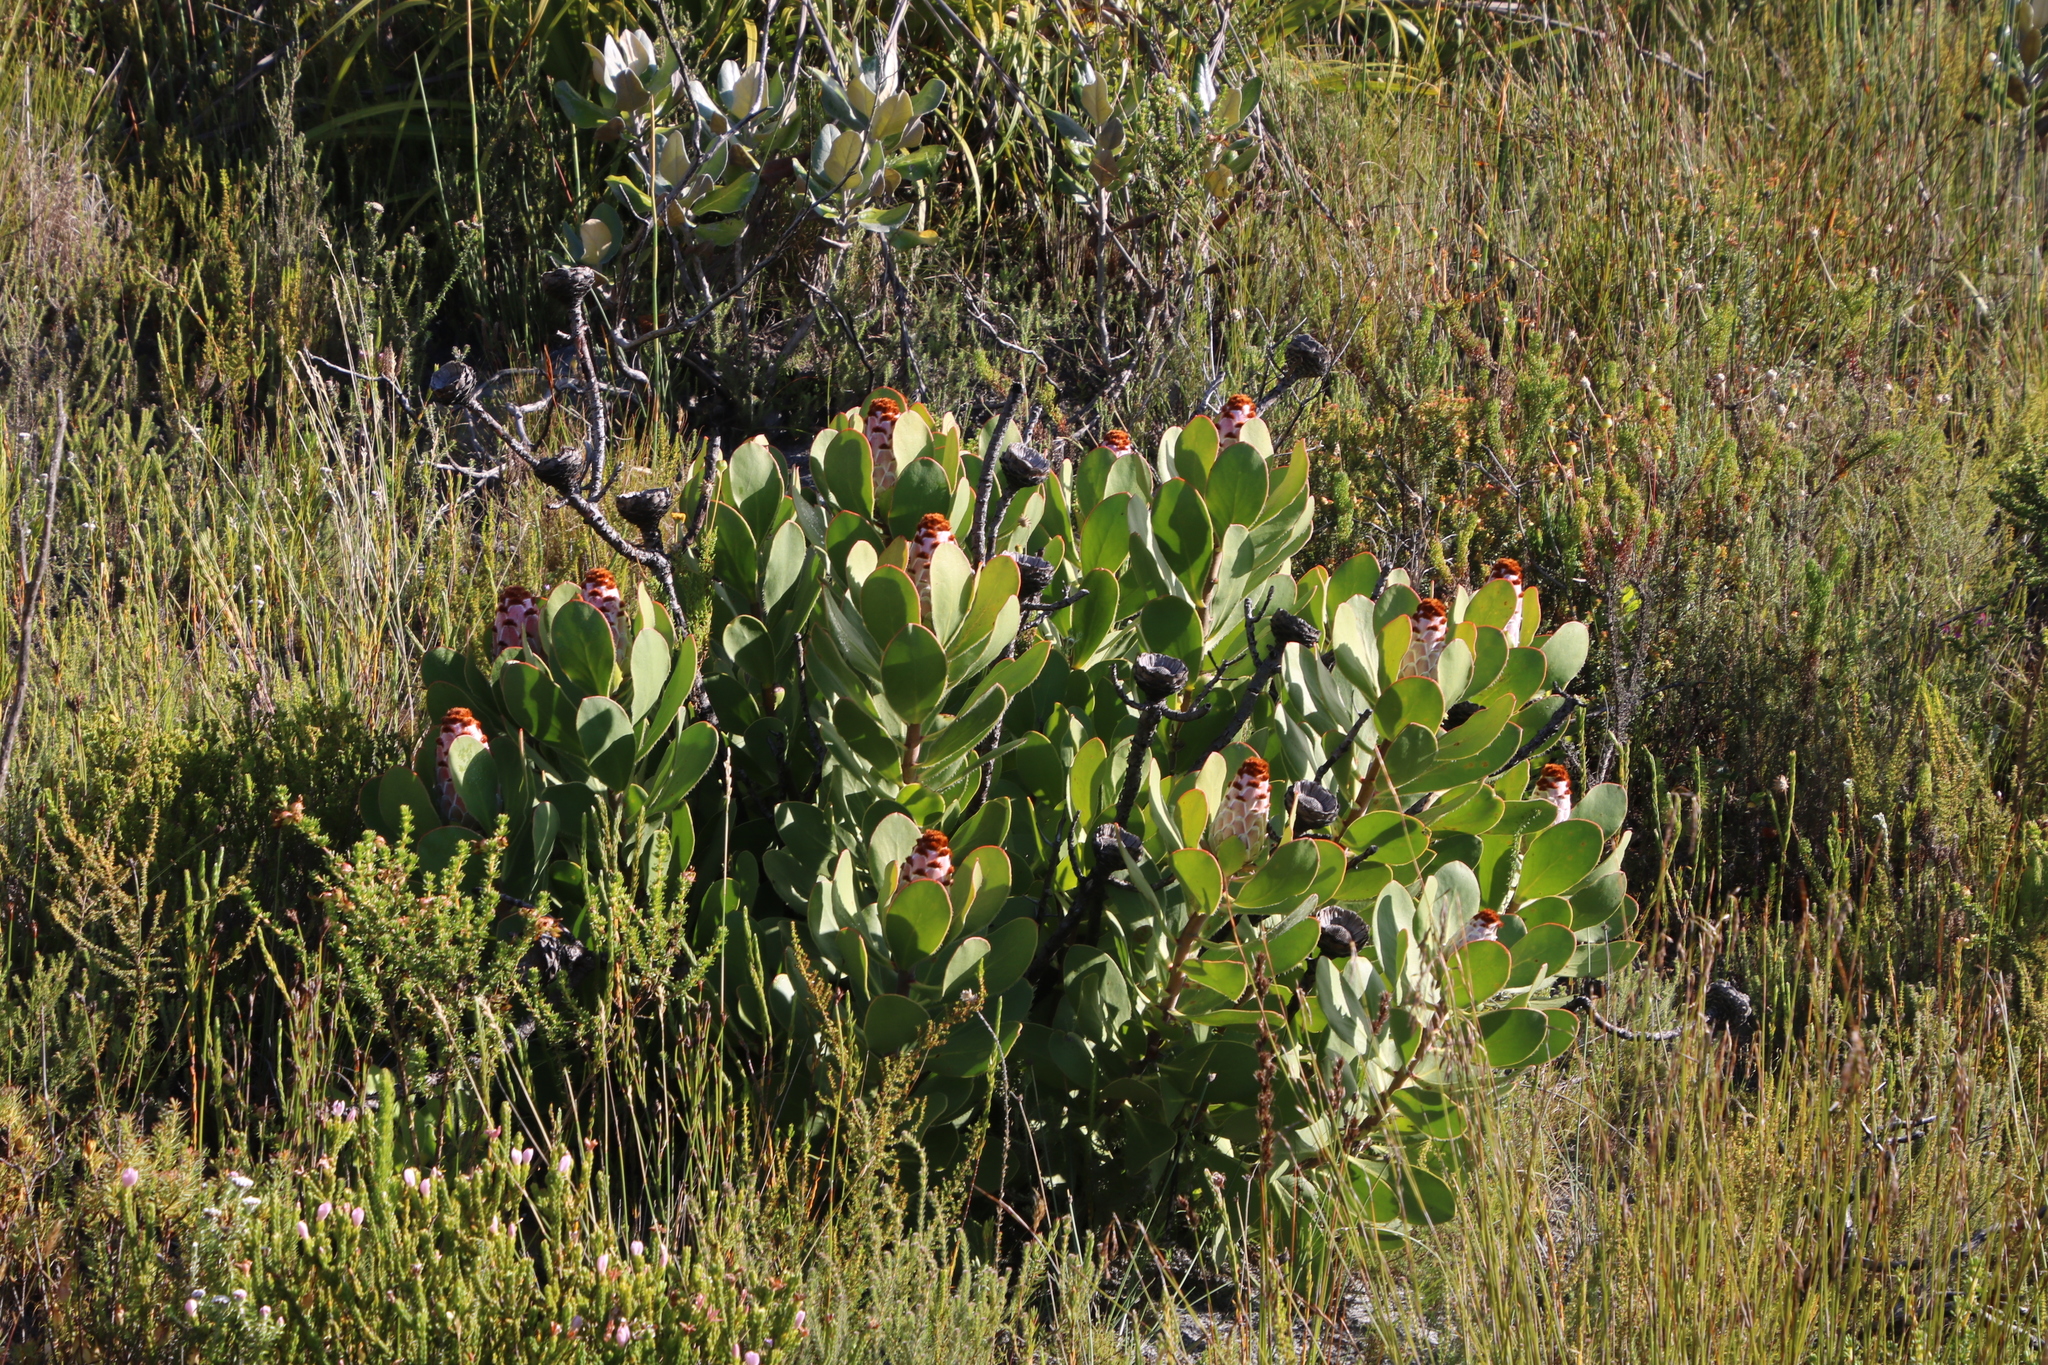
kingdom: Plantae
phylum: Tracheophyta
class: Magnoliopsida
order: Proteales
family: Proteaceae
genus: Protea
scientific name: Protea speciosa
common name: Brown-beard sugarbush
